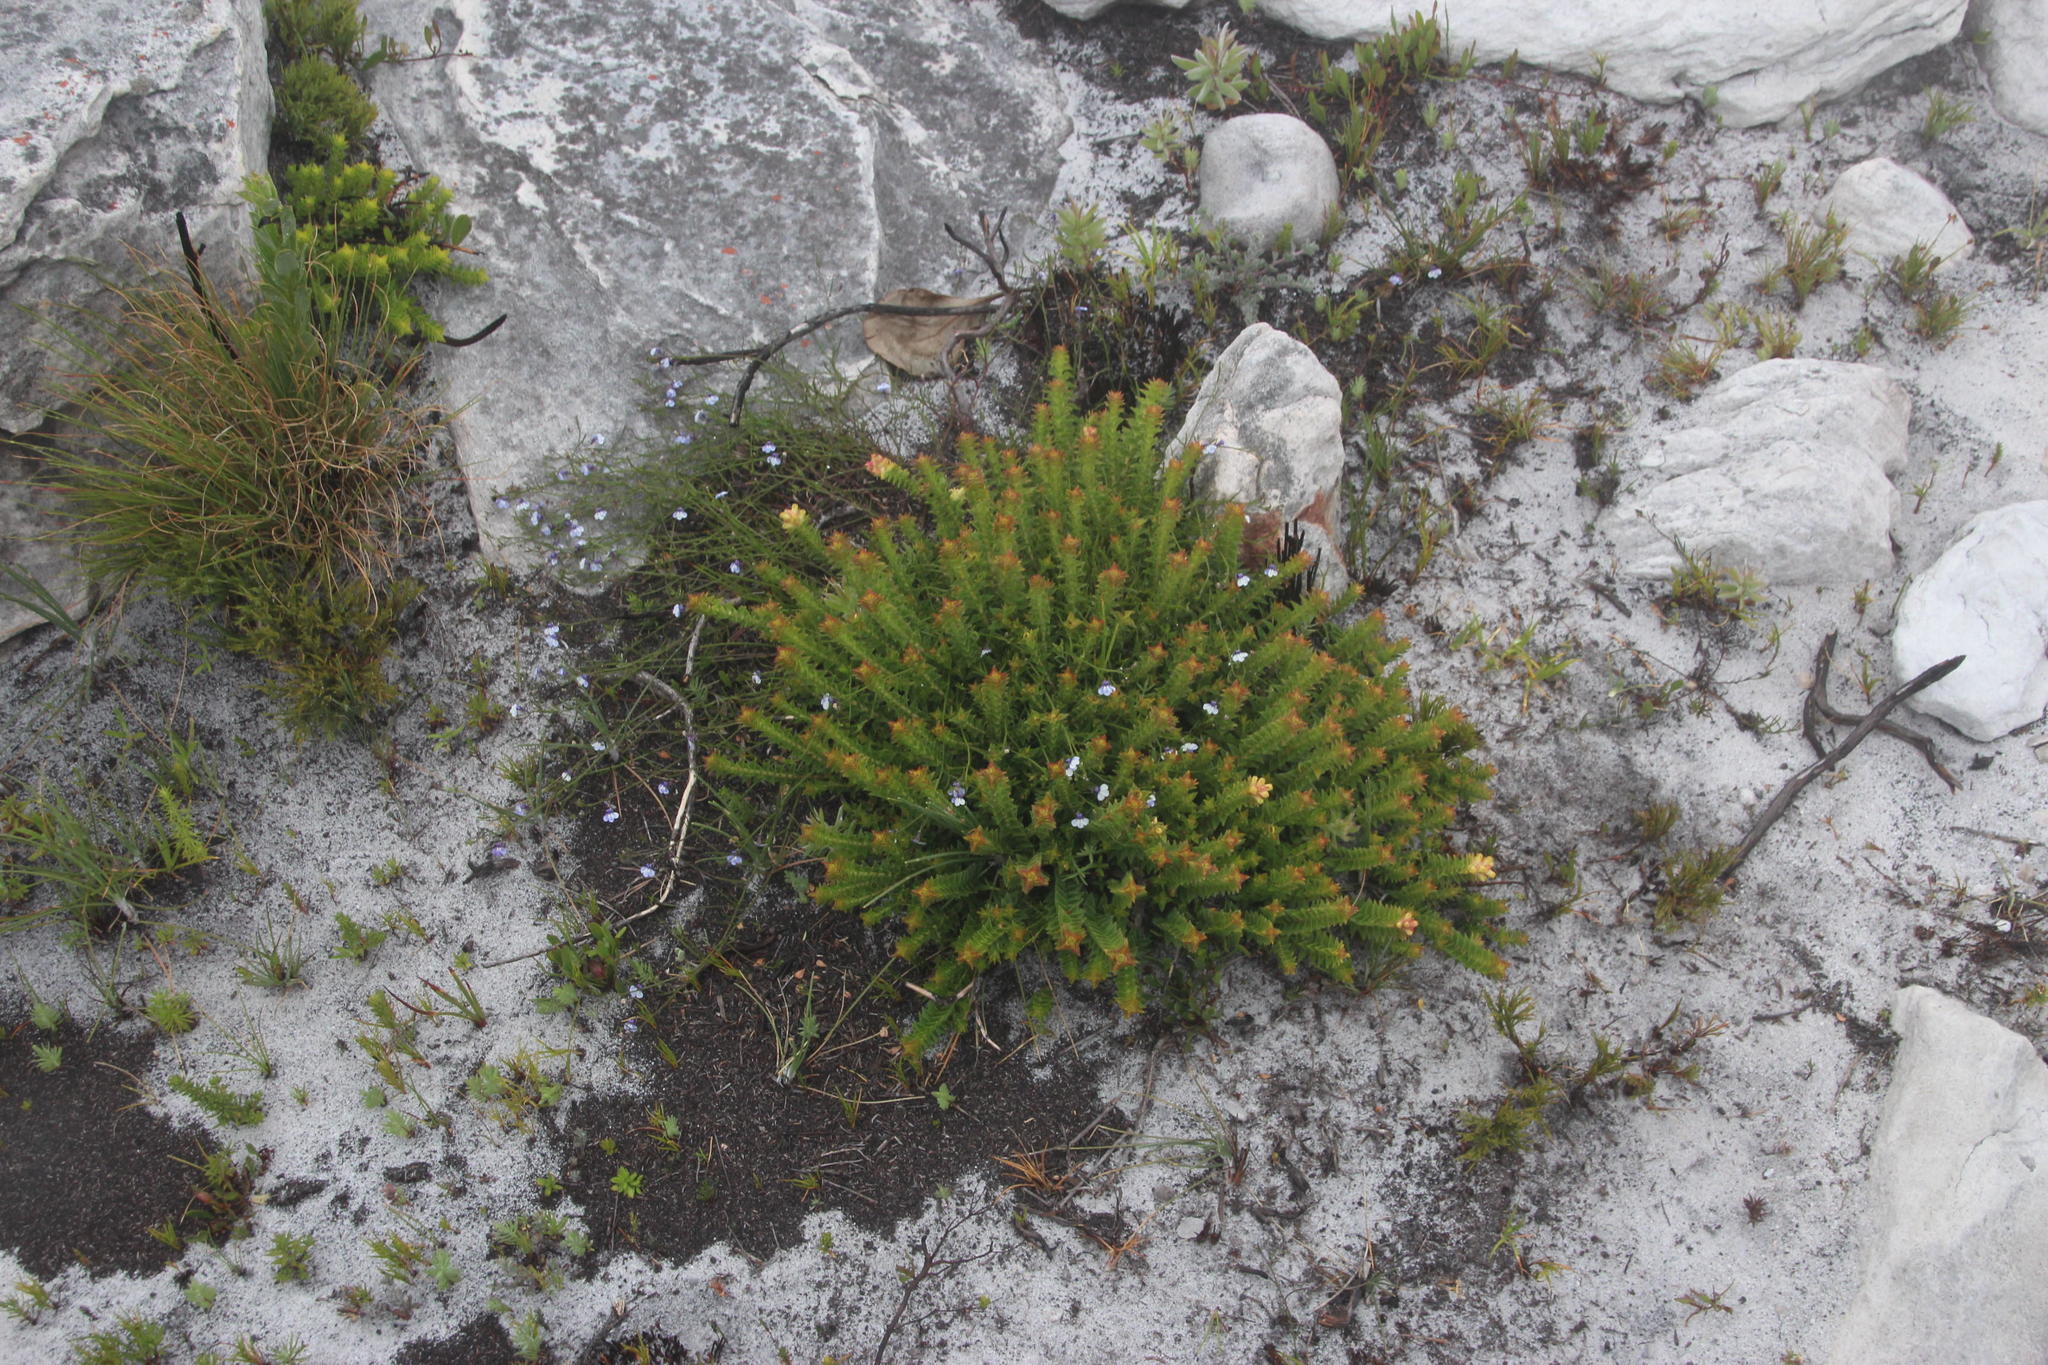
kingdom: Plantae
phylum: Tracheophyta
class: Magnoliopsida
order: Asterales
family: Campanulaceae
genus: Lobelia
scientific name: Lobelia setacea
